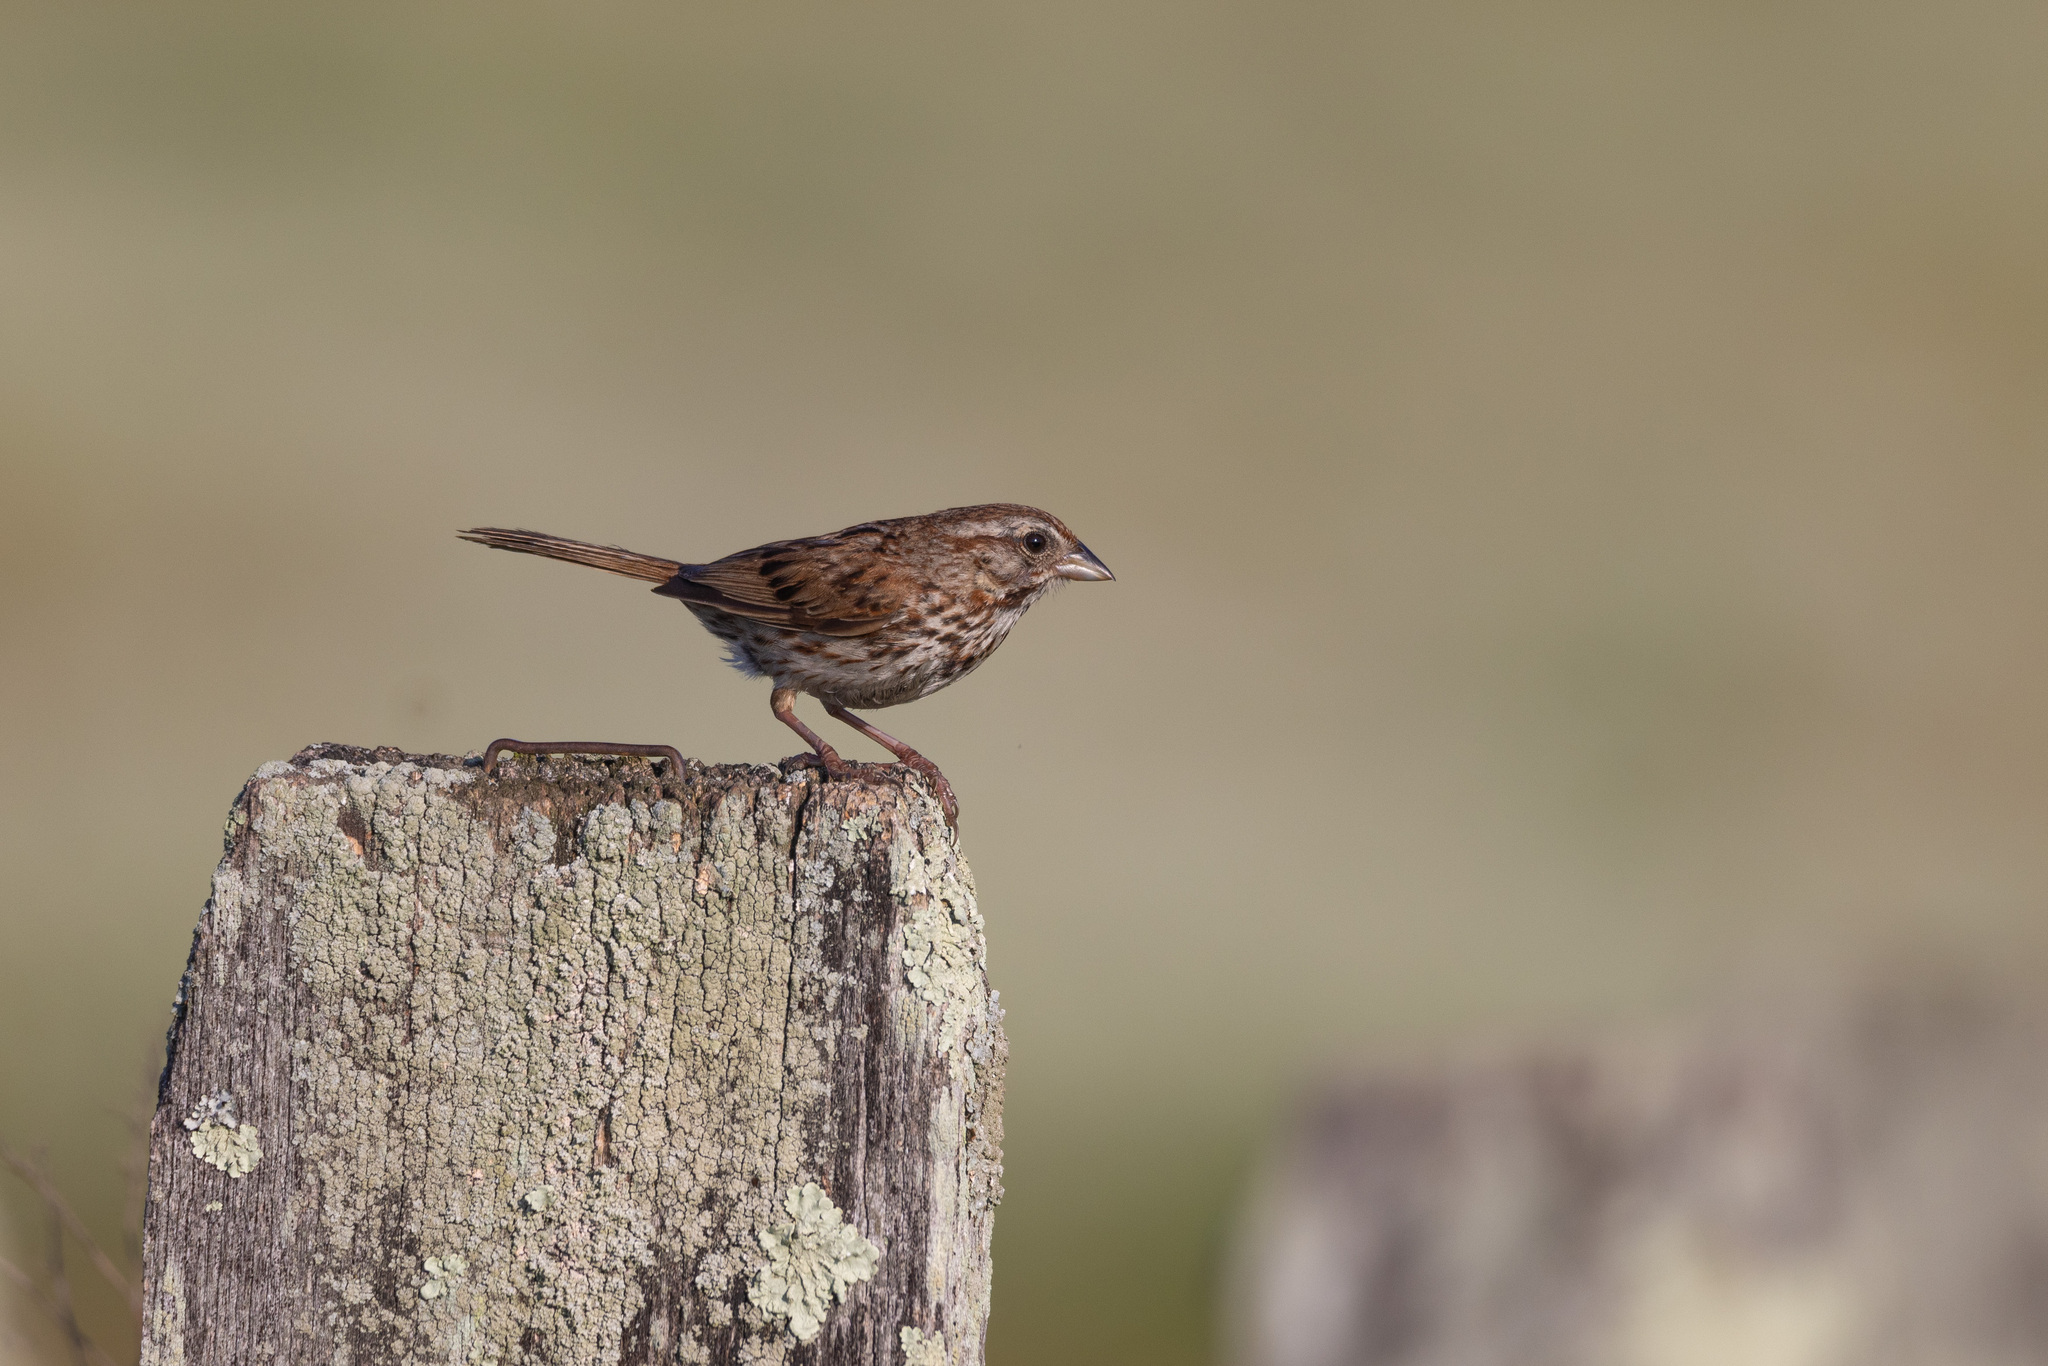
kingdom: Animalia
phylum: Chordata
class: Aves
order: Passeriformes
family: Passerellidae
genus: Melospiza
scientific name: Melospiza melodia
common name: Song sparrow
